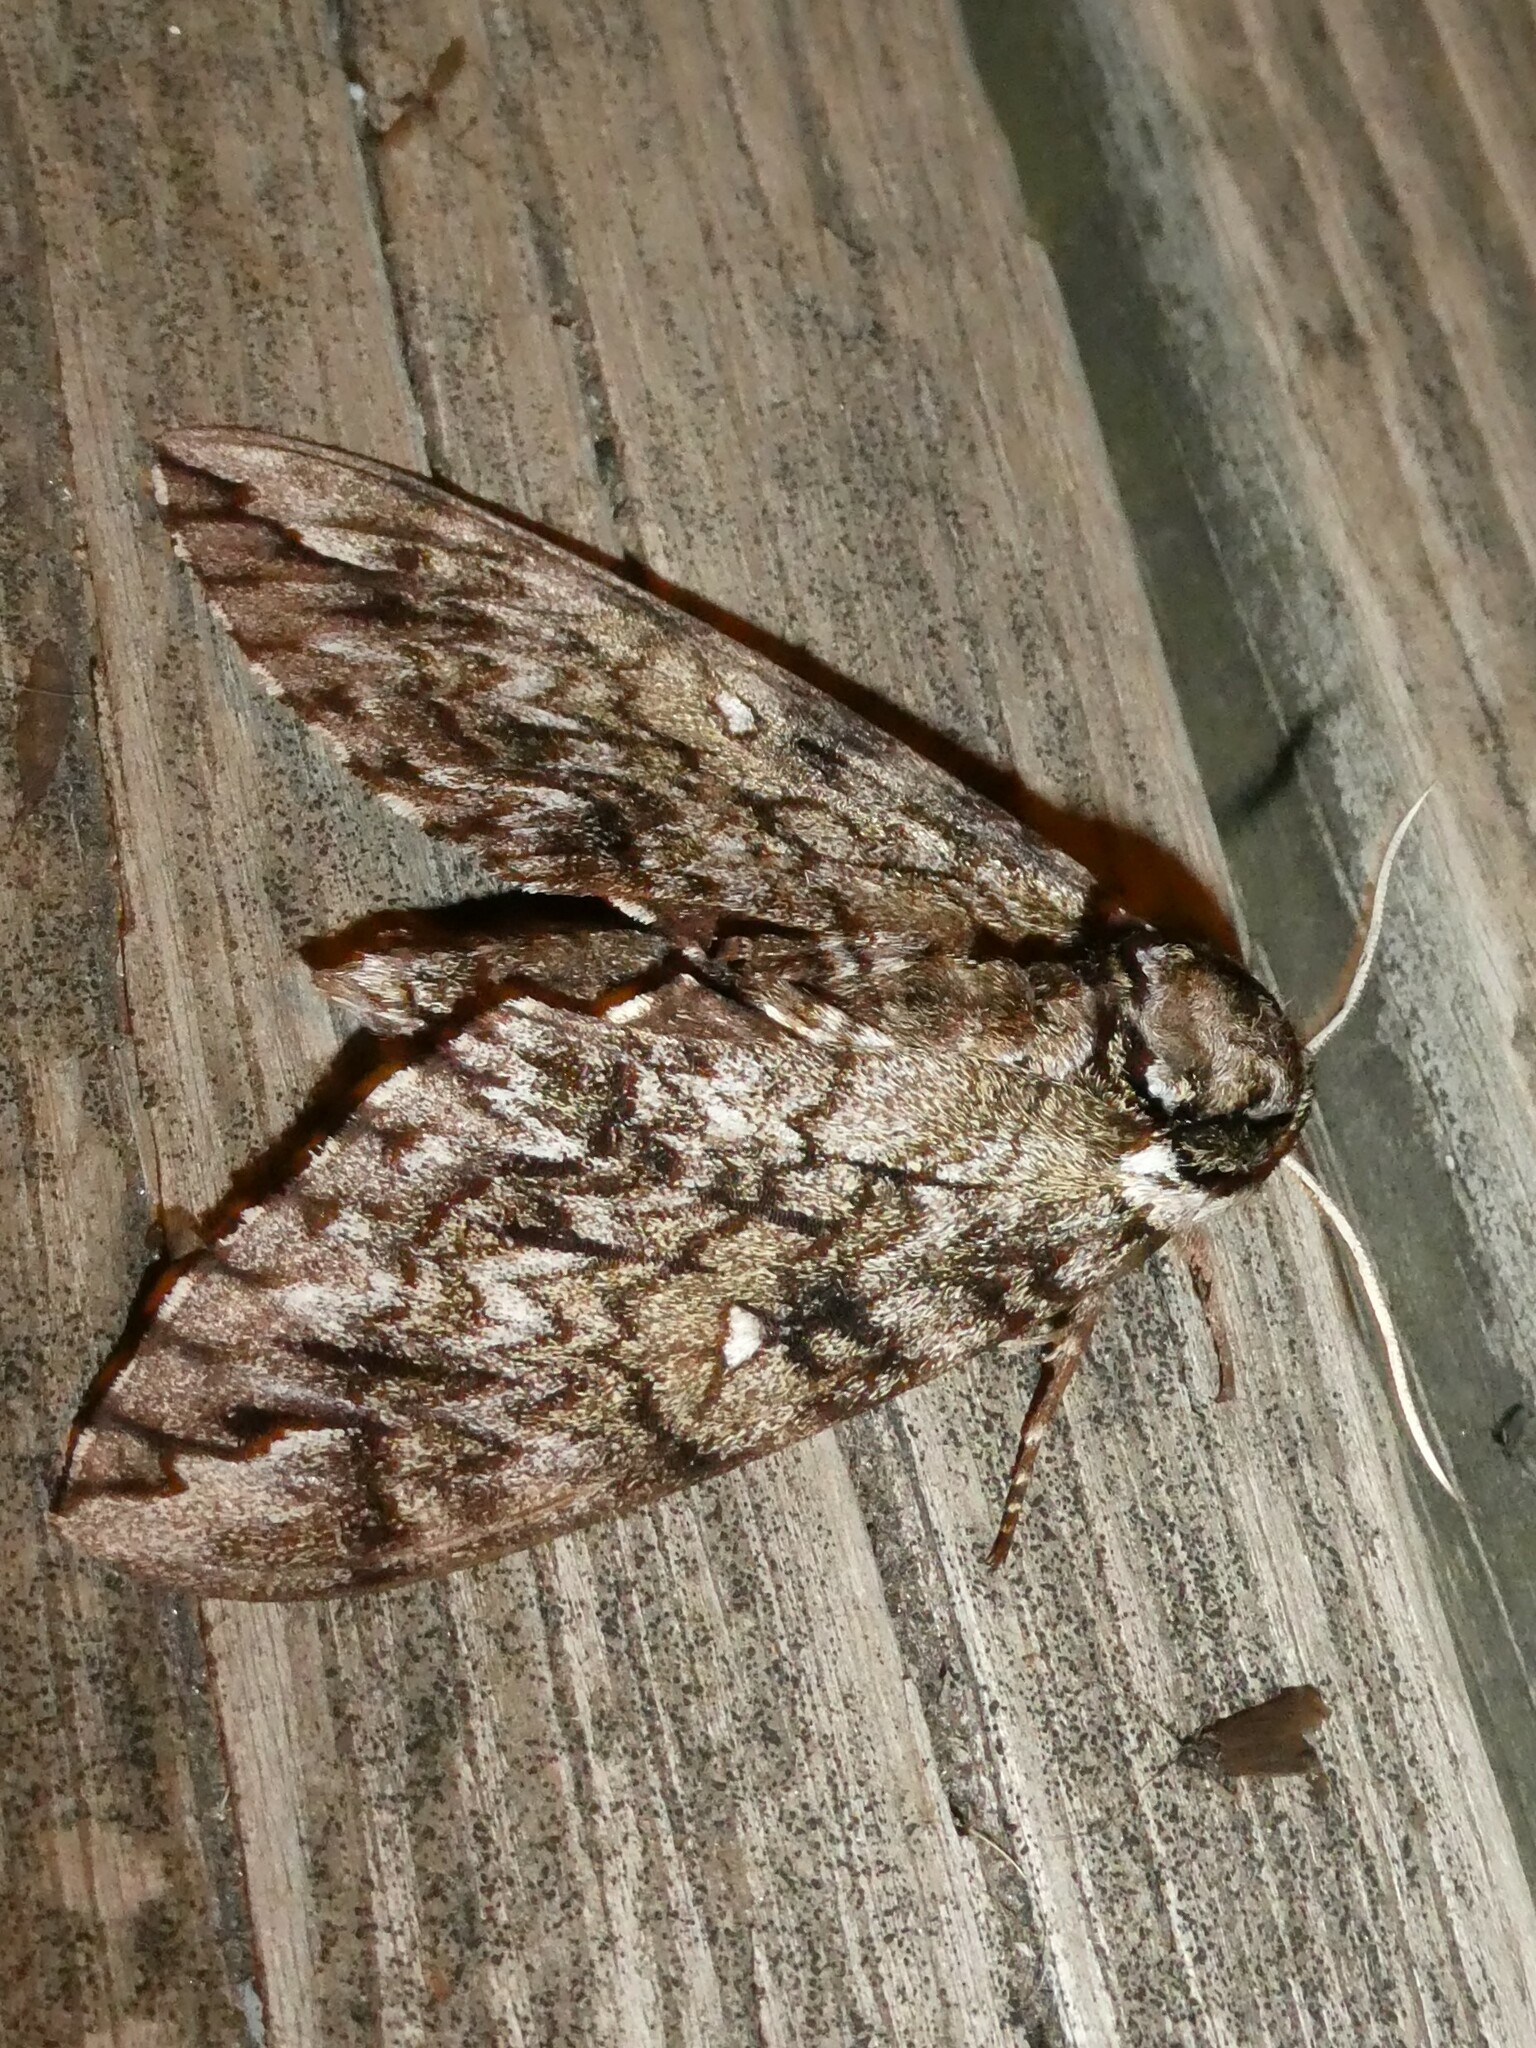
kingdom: Animalia
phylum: Arthropoda
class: Insecta
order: Lepidoptera
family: Sphingidae
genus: Ceratomia
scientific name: Ceratomia undulosa
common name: Waved sphinx
